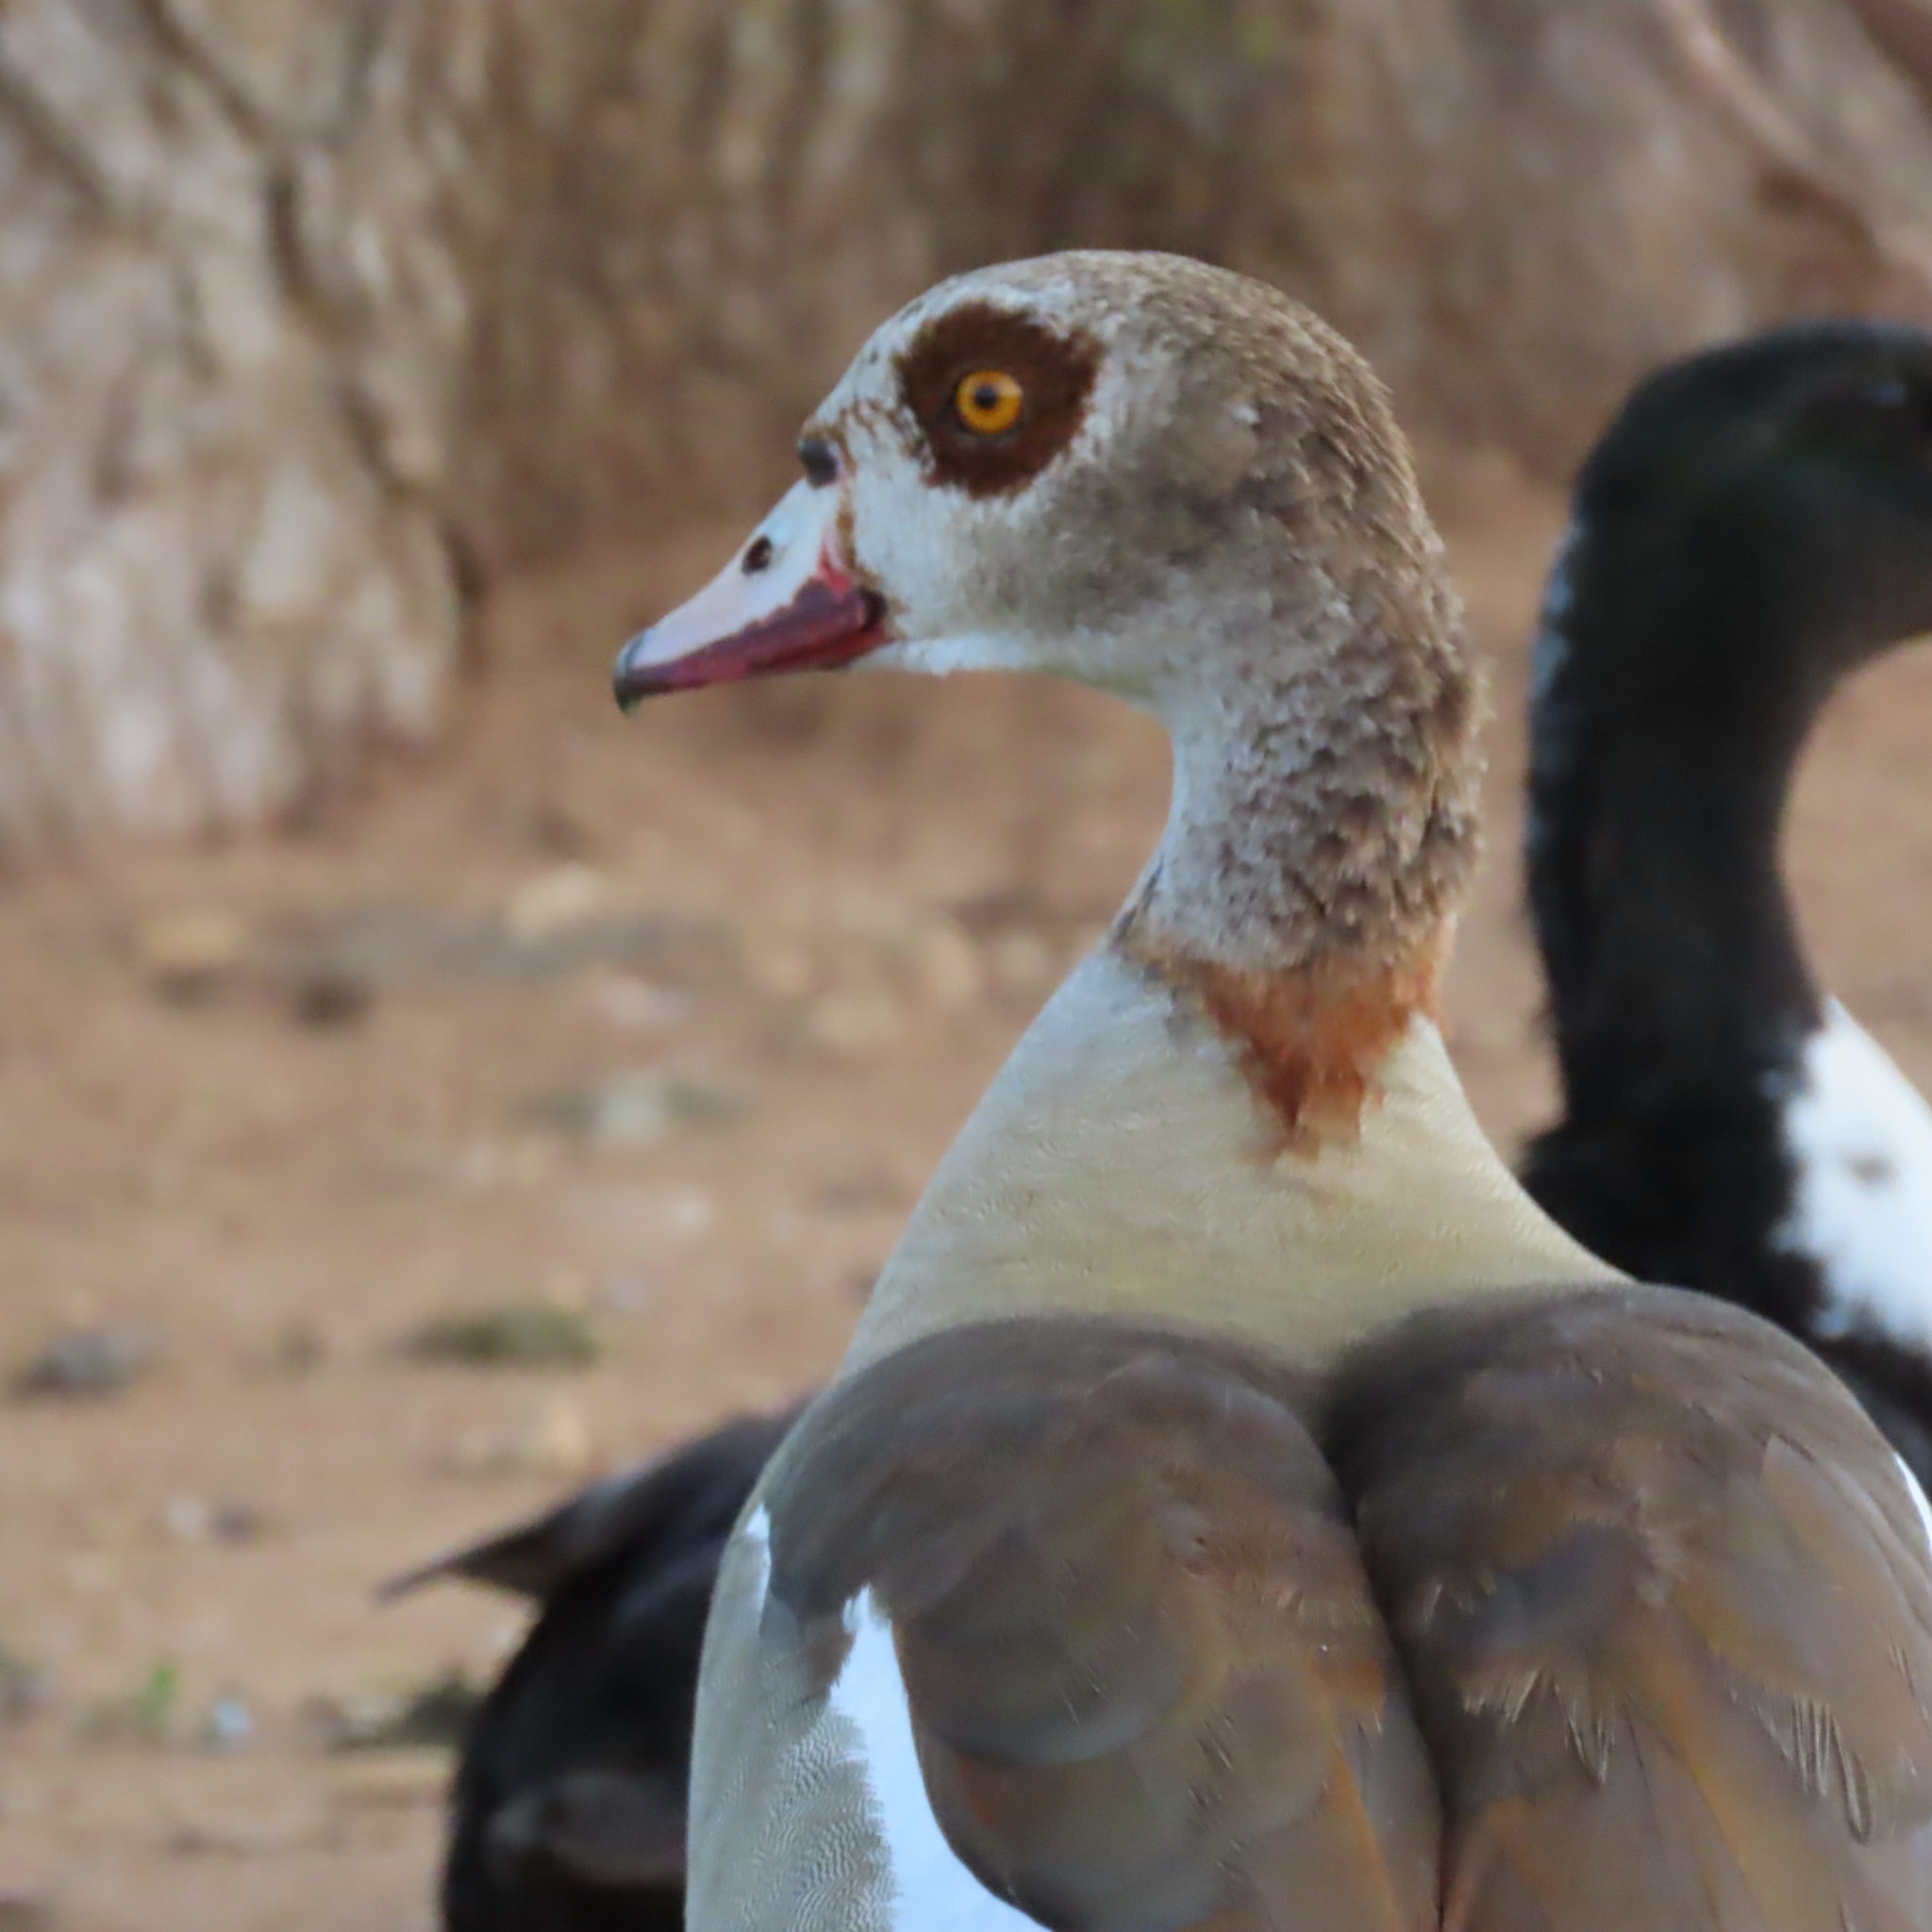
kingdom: Animalia
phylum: Chordata
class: Aves
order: Anseriformes
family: Anatidae
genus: Alopochen
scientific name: Alopochen aegyptiaca
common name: Egyptian goose
